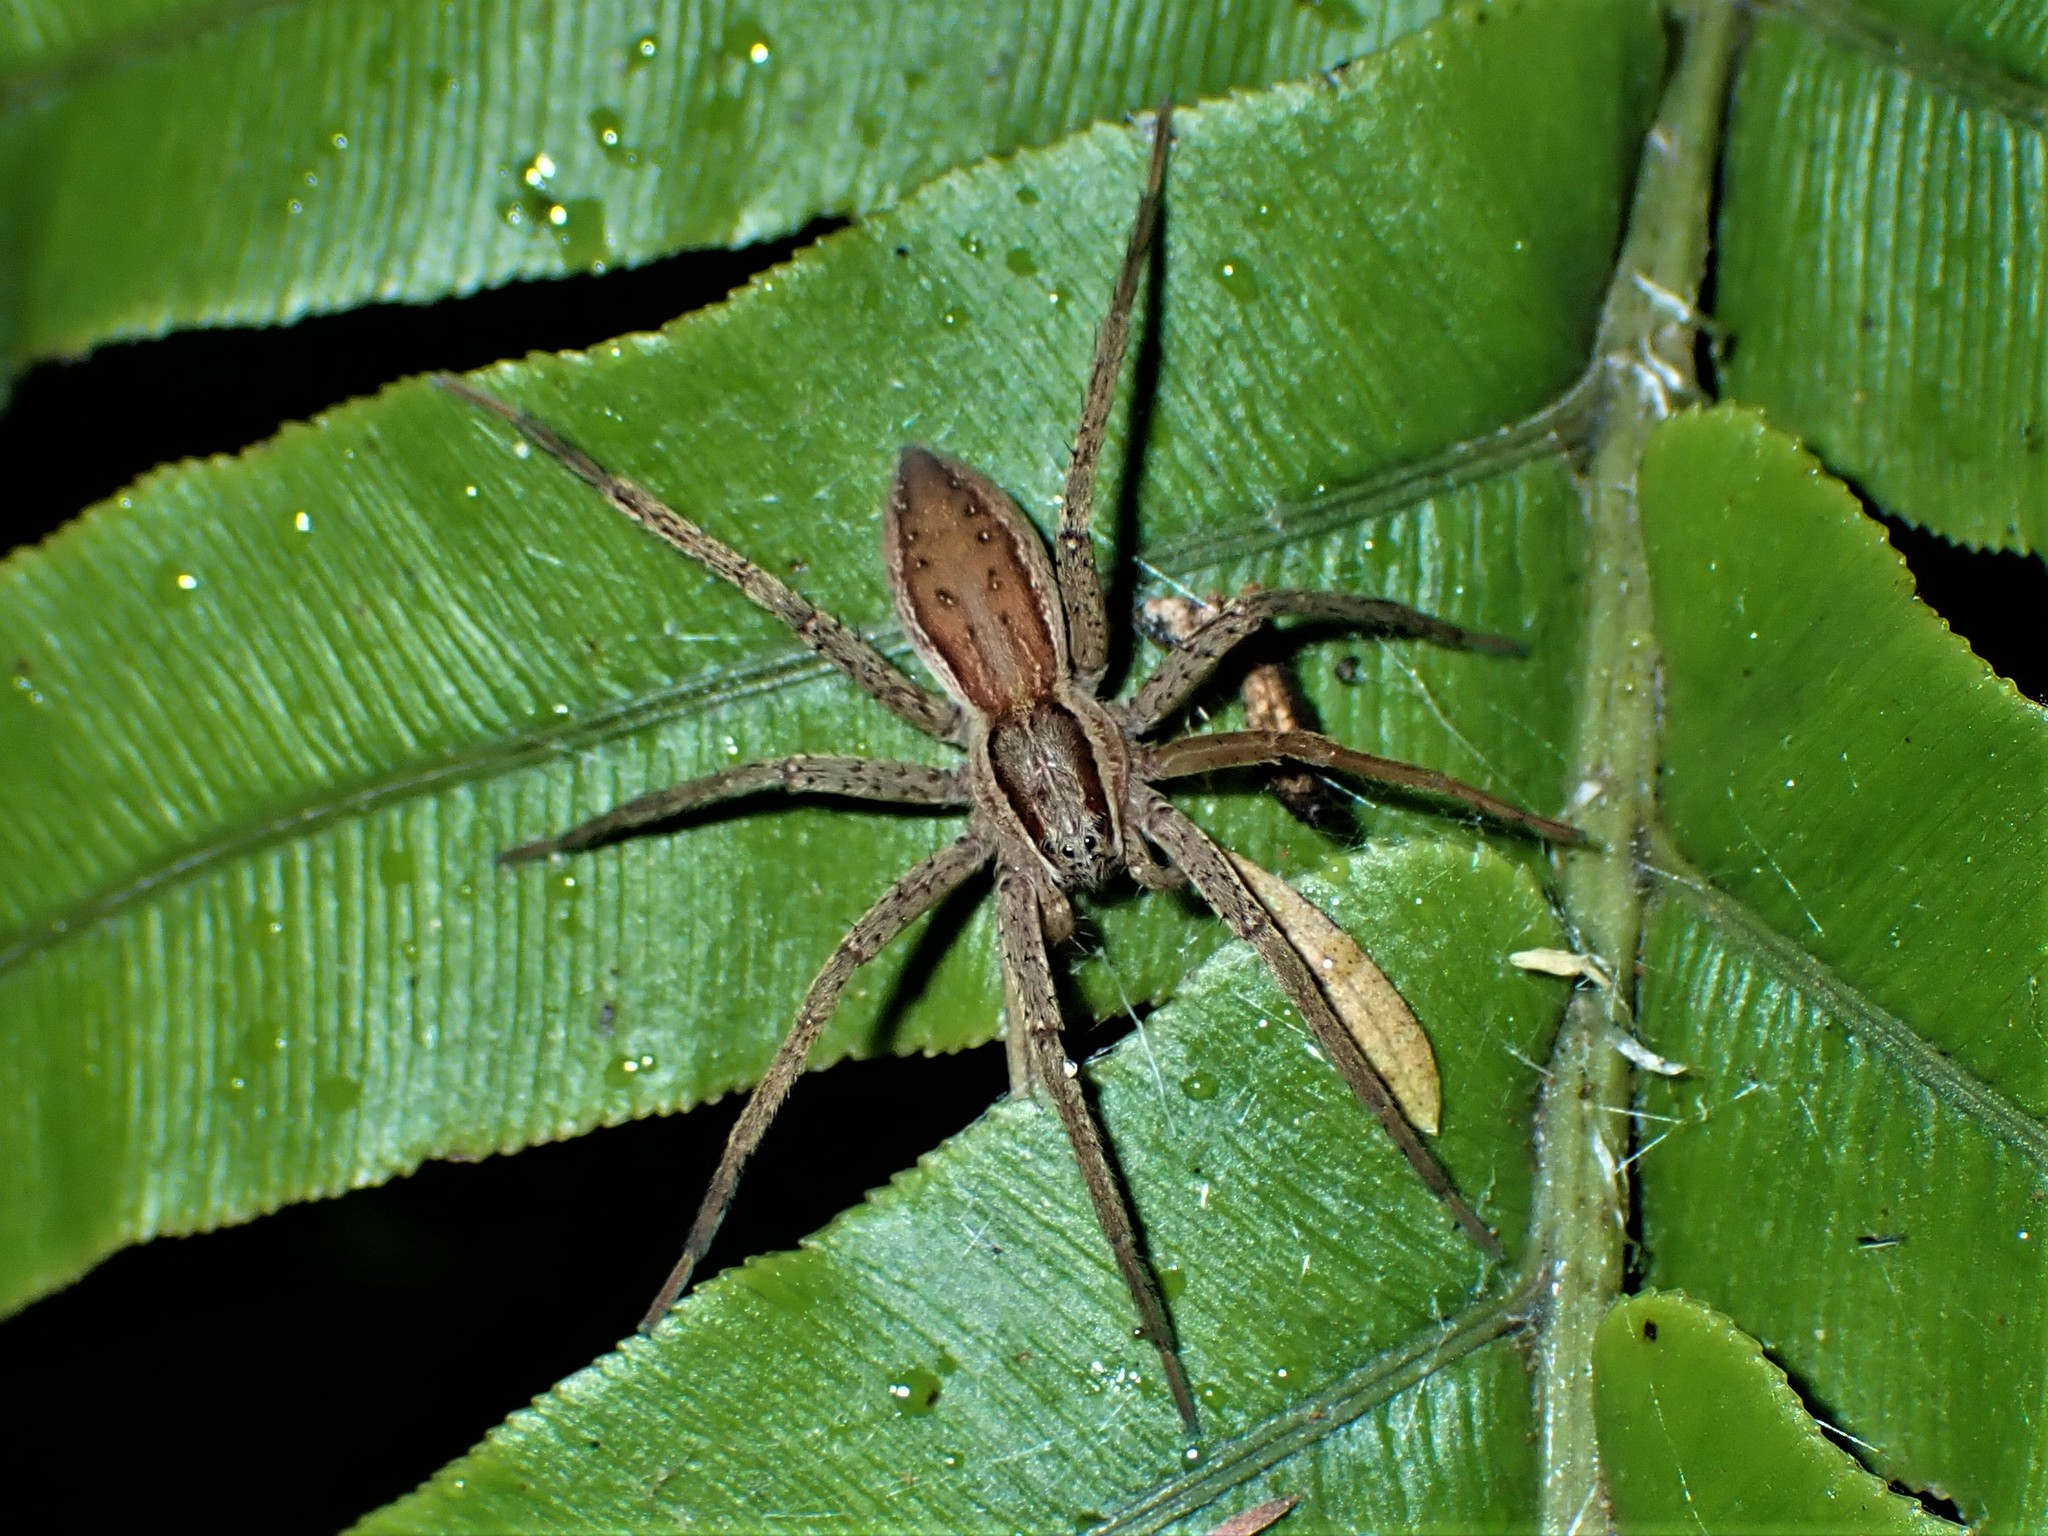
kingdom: Animalia
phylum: Arthropoda
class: Arachnida
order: Araneae
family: Pisauridae
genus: Dolomedes
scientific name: Dolomedes minor
